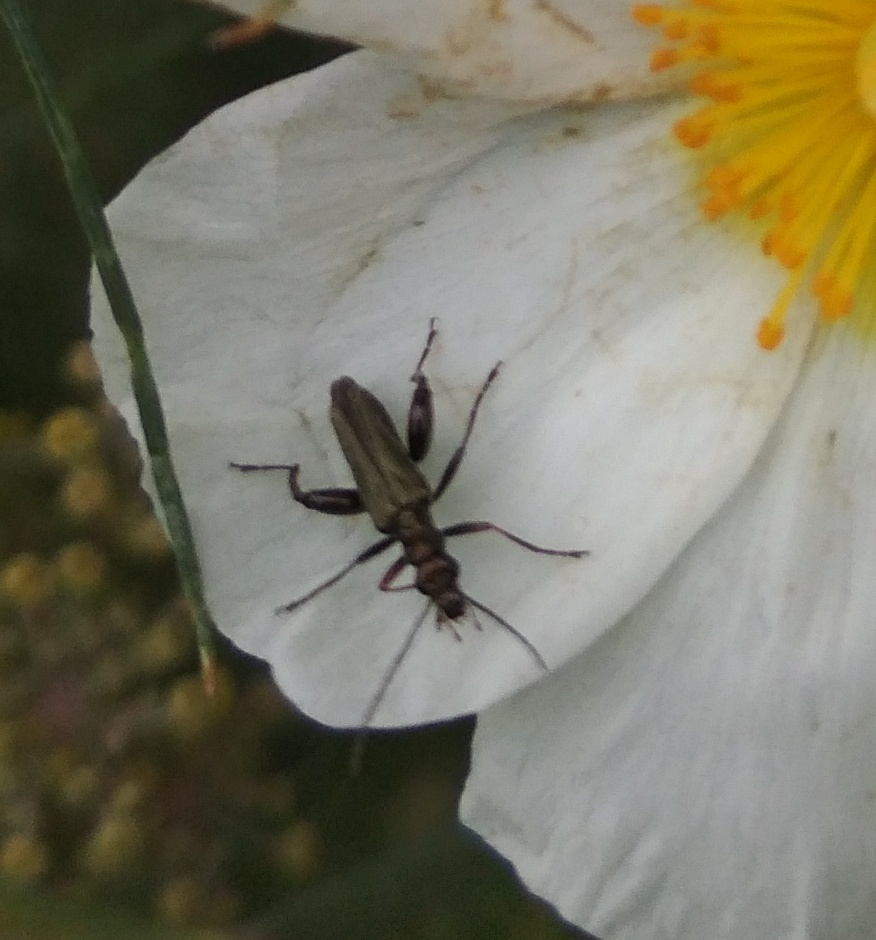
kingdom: Animalia
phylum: Arthropoda
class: Insecta
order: Coleoptera
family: Oedemeridae
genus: Oedemera
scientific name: Oedemera flavipes
